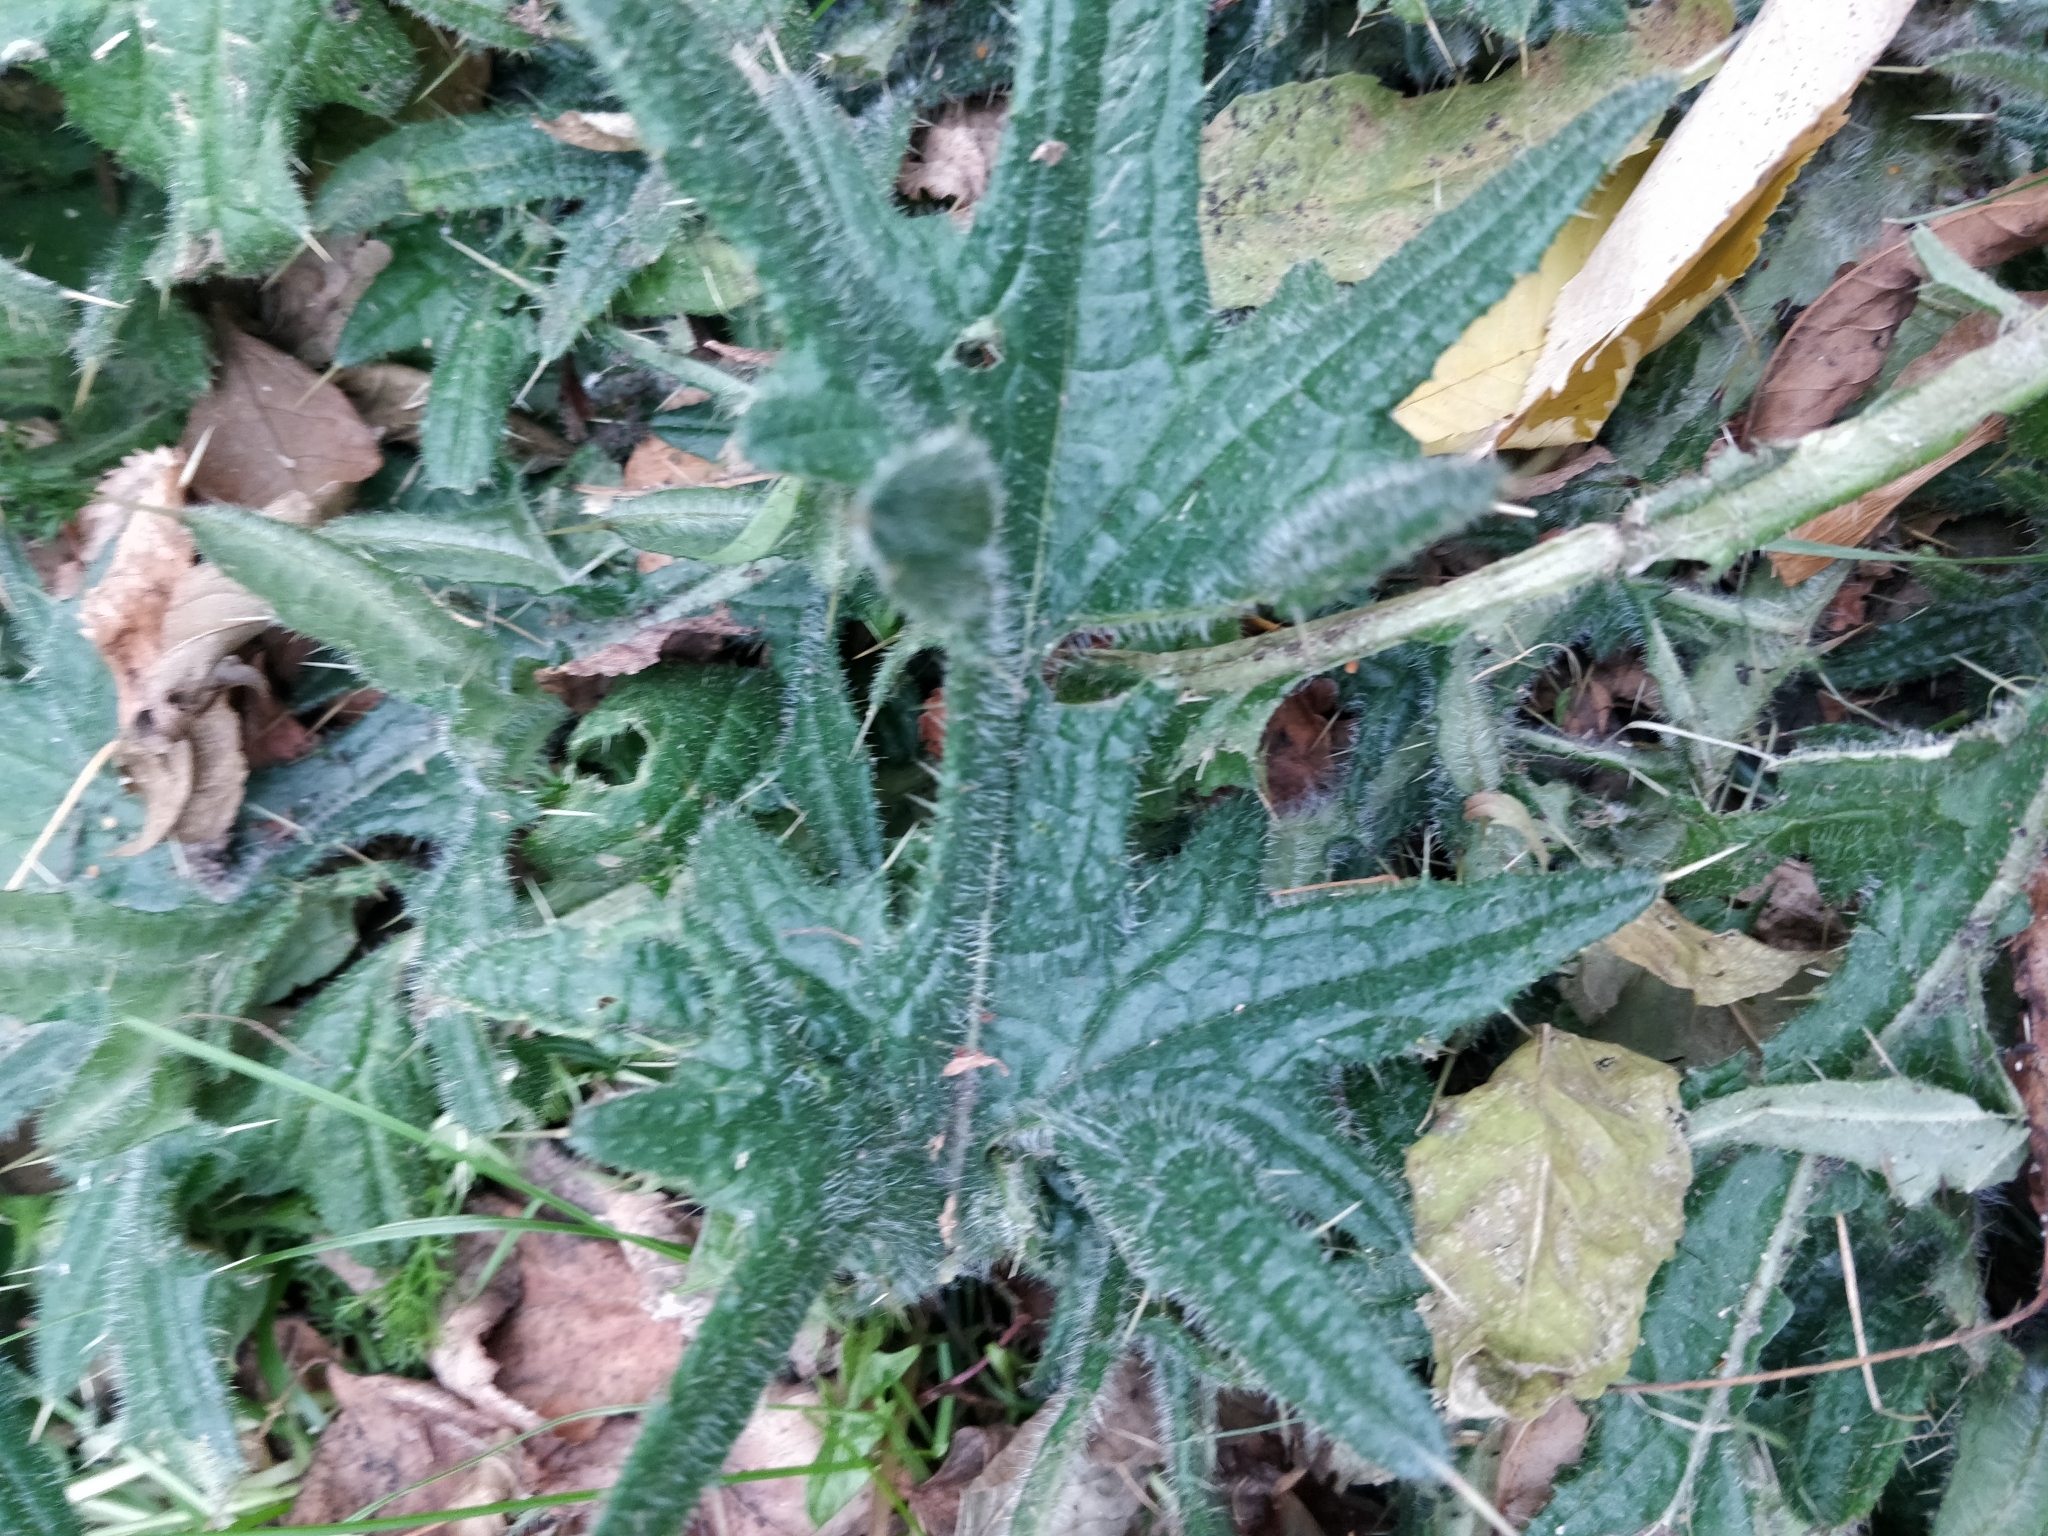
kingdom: Plantae
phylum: Tracheophyta
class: Magnoliopsida
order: Asterales
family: Asteraceae
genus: Cirsium
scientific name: Cirsium vulgare
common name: Bull thistle
